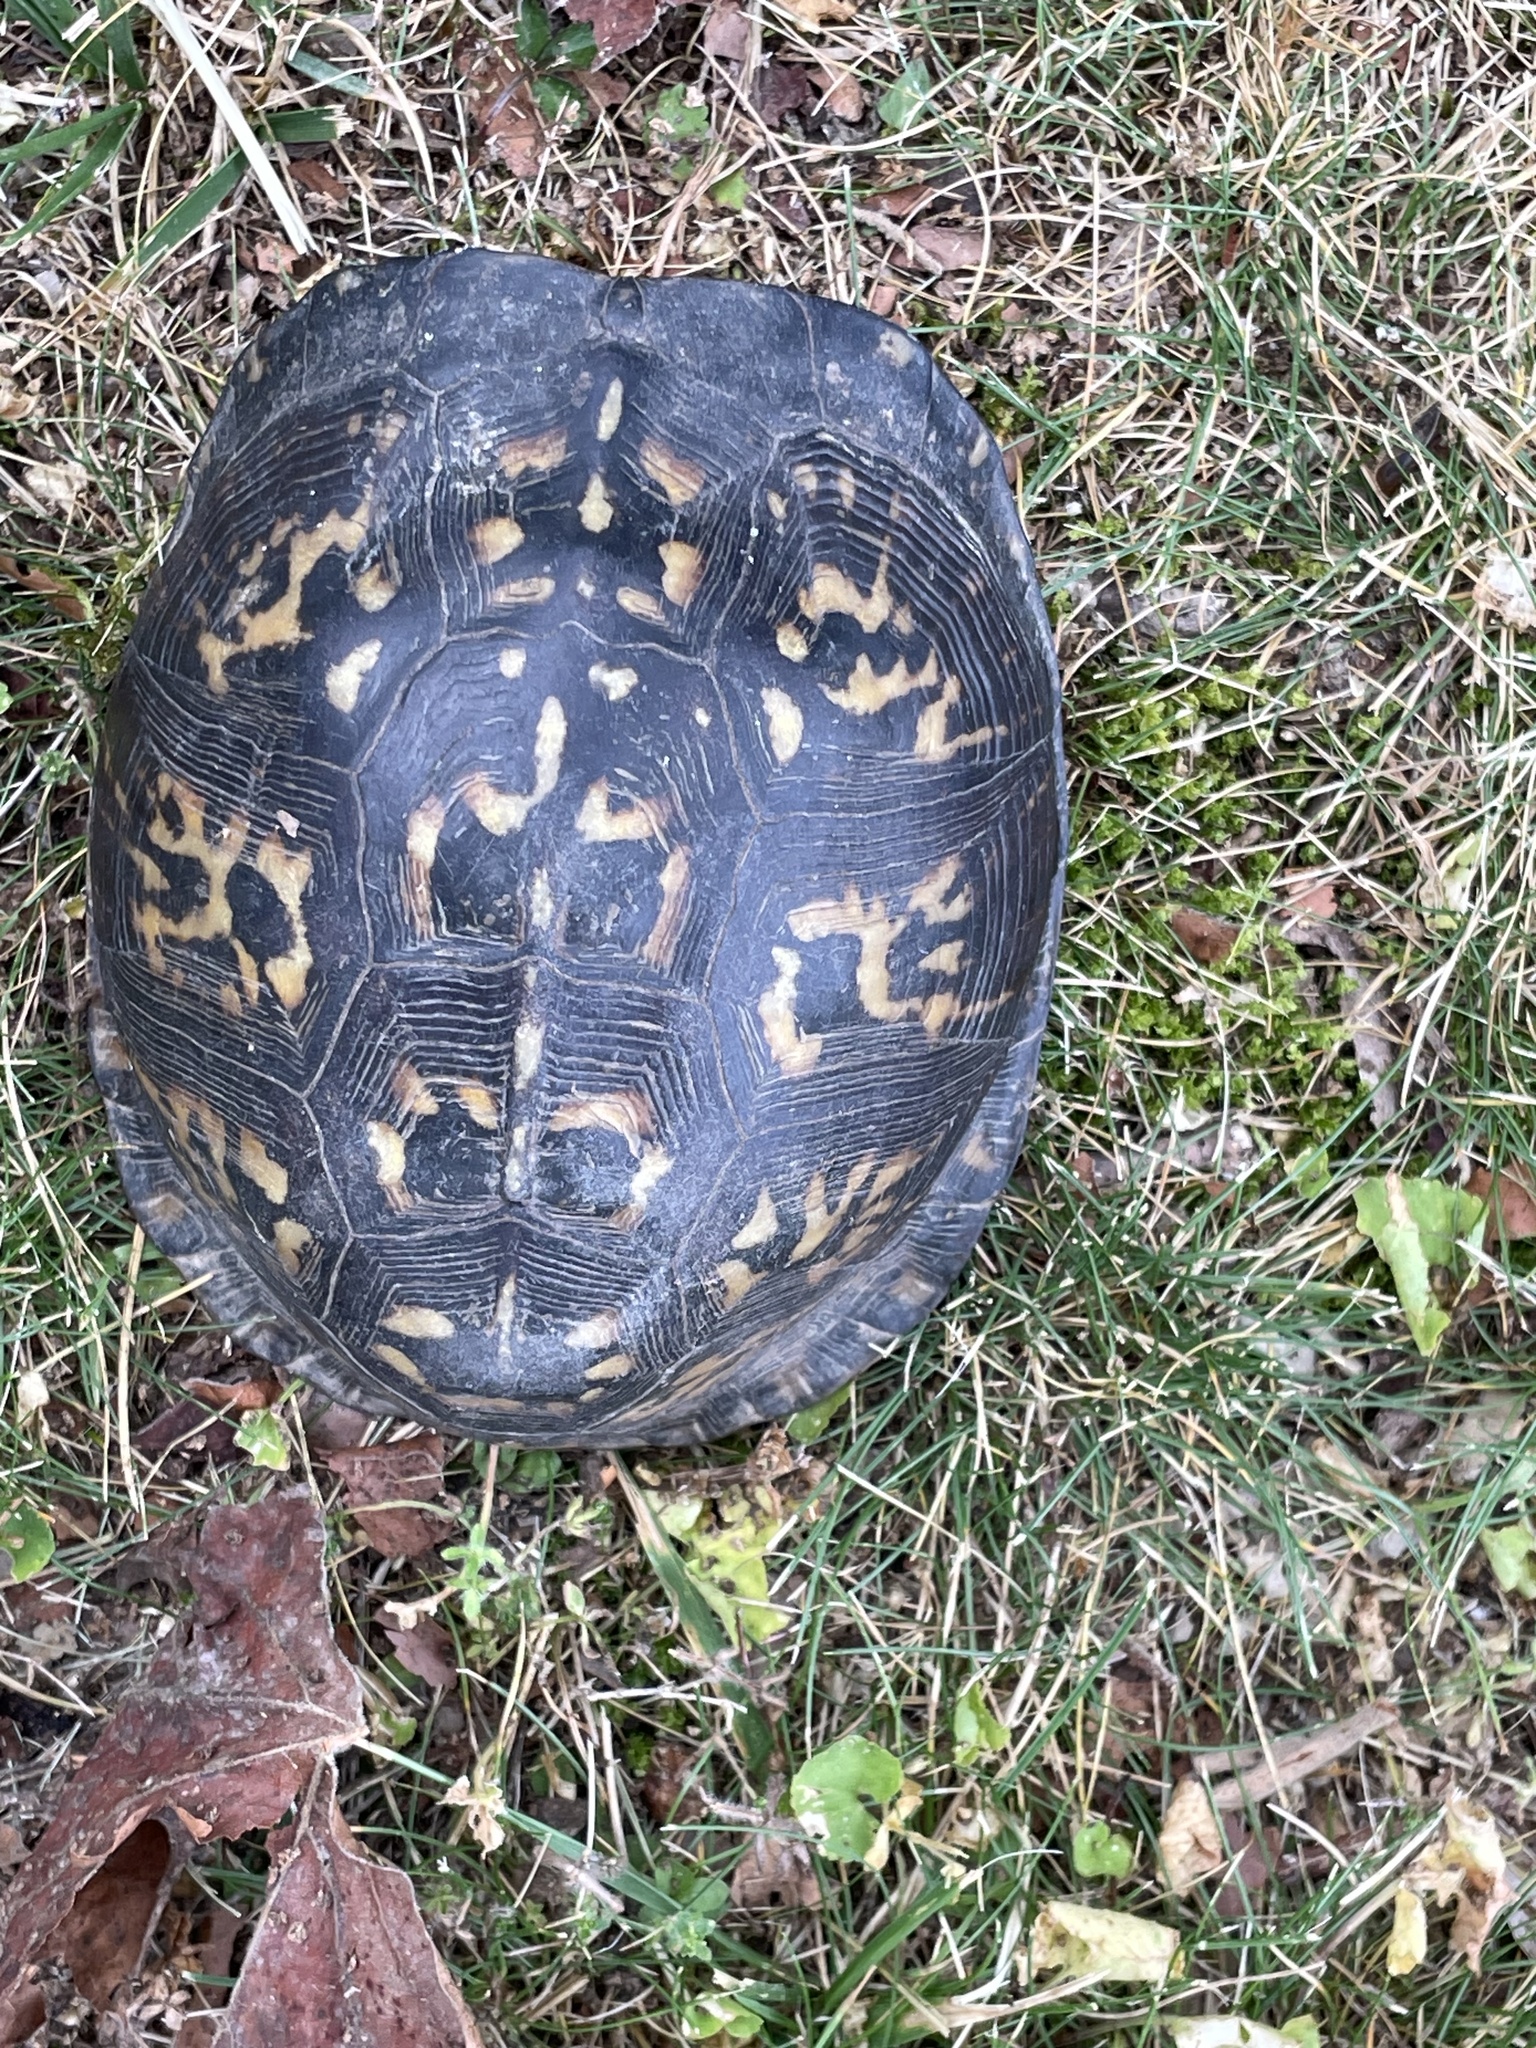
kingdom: Animalia
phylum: Chordata
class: Testudines
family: Emydidae
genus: Terrapene
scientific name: Terrapene carolina
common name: Common box turtle
